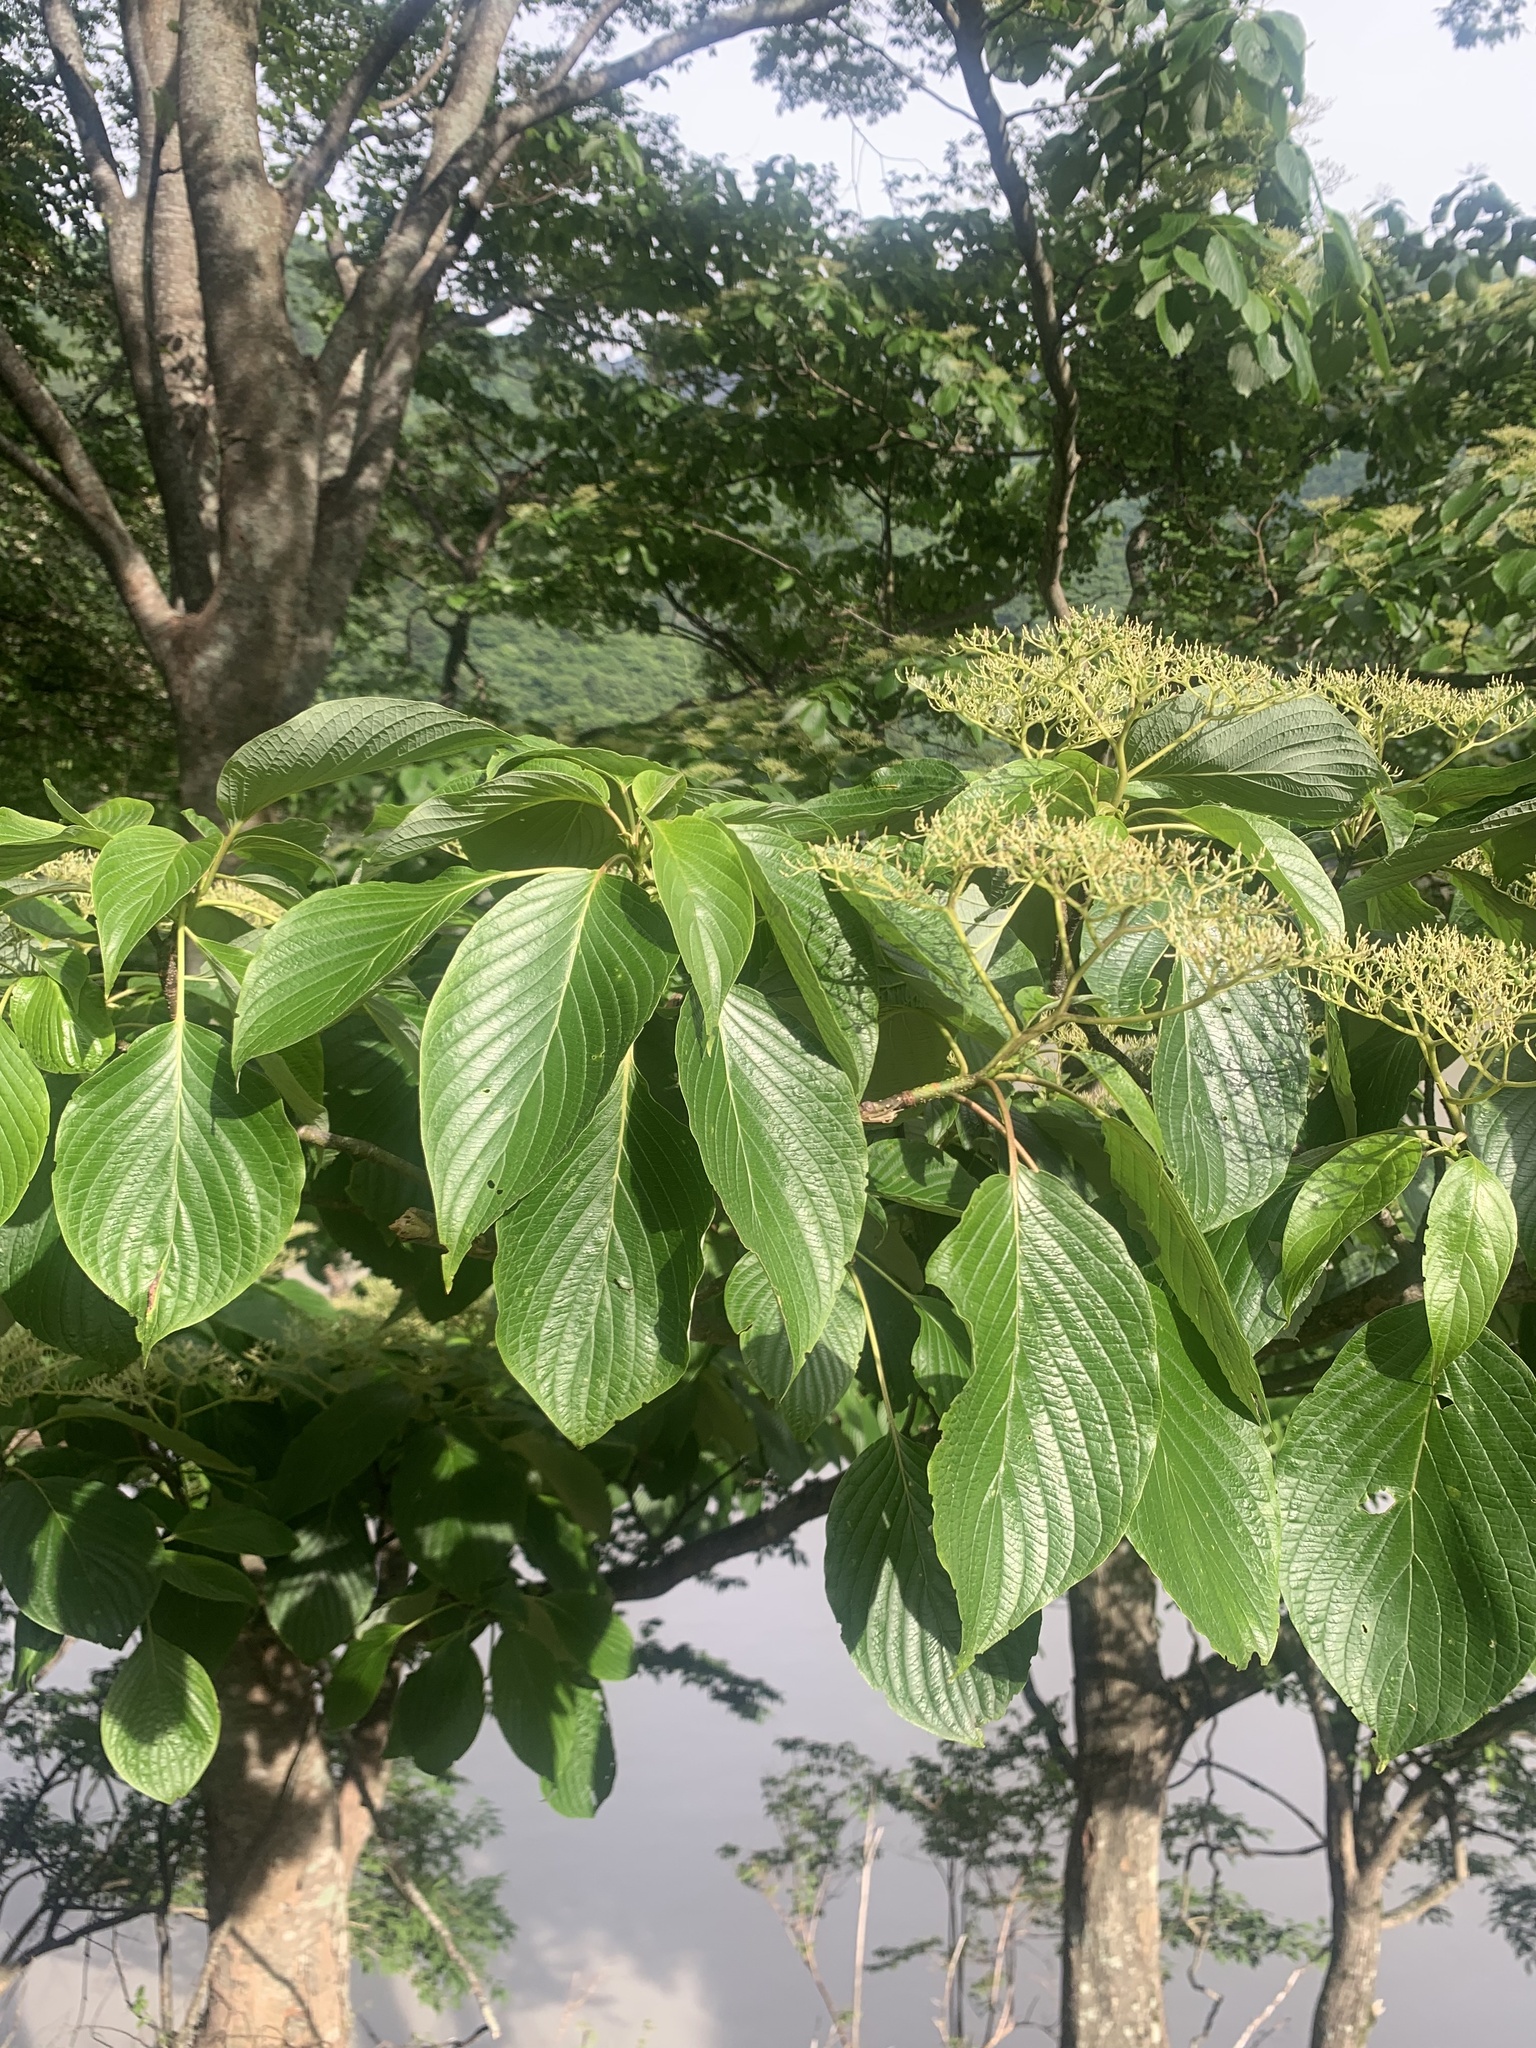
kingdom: Plantae
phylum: Tracheophyta
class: Magnoliopsida
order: Cornales
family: Cornaceae
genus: Cornus
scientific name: Cornus controversa
